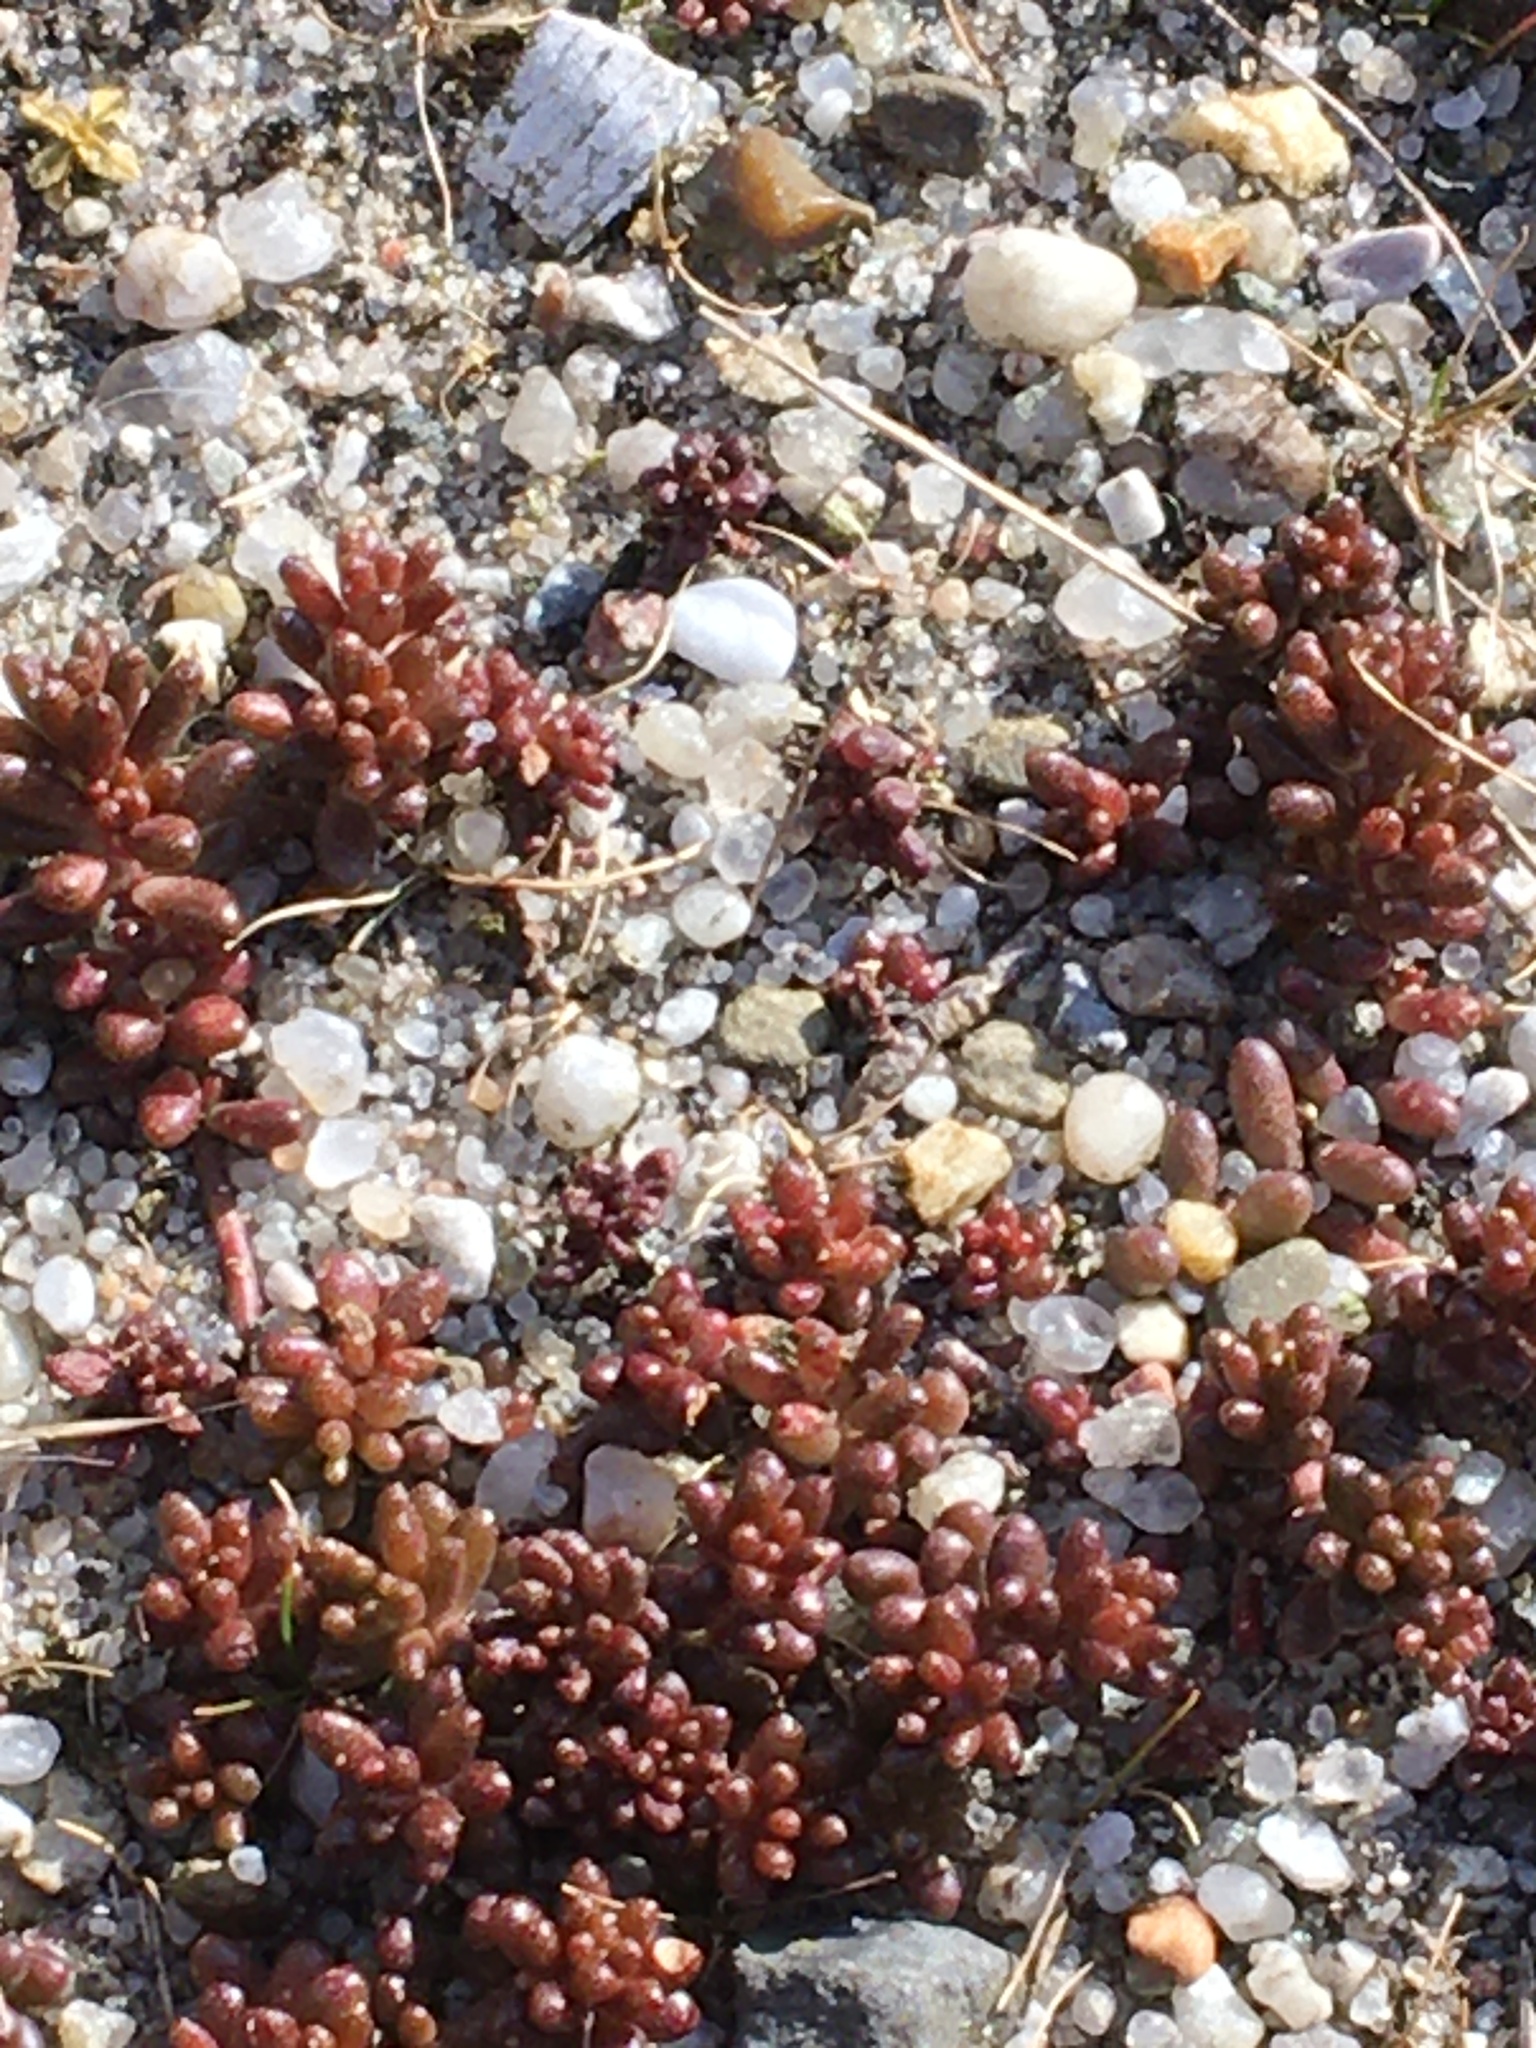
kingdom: Plantae
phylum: Tracheophyta
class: Magnoliopsida
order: Saxifragales
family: Crassulaceae
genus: Sedum
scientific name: Sedum album
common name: White stonecrop
